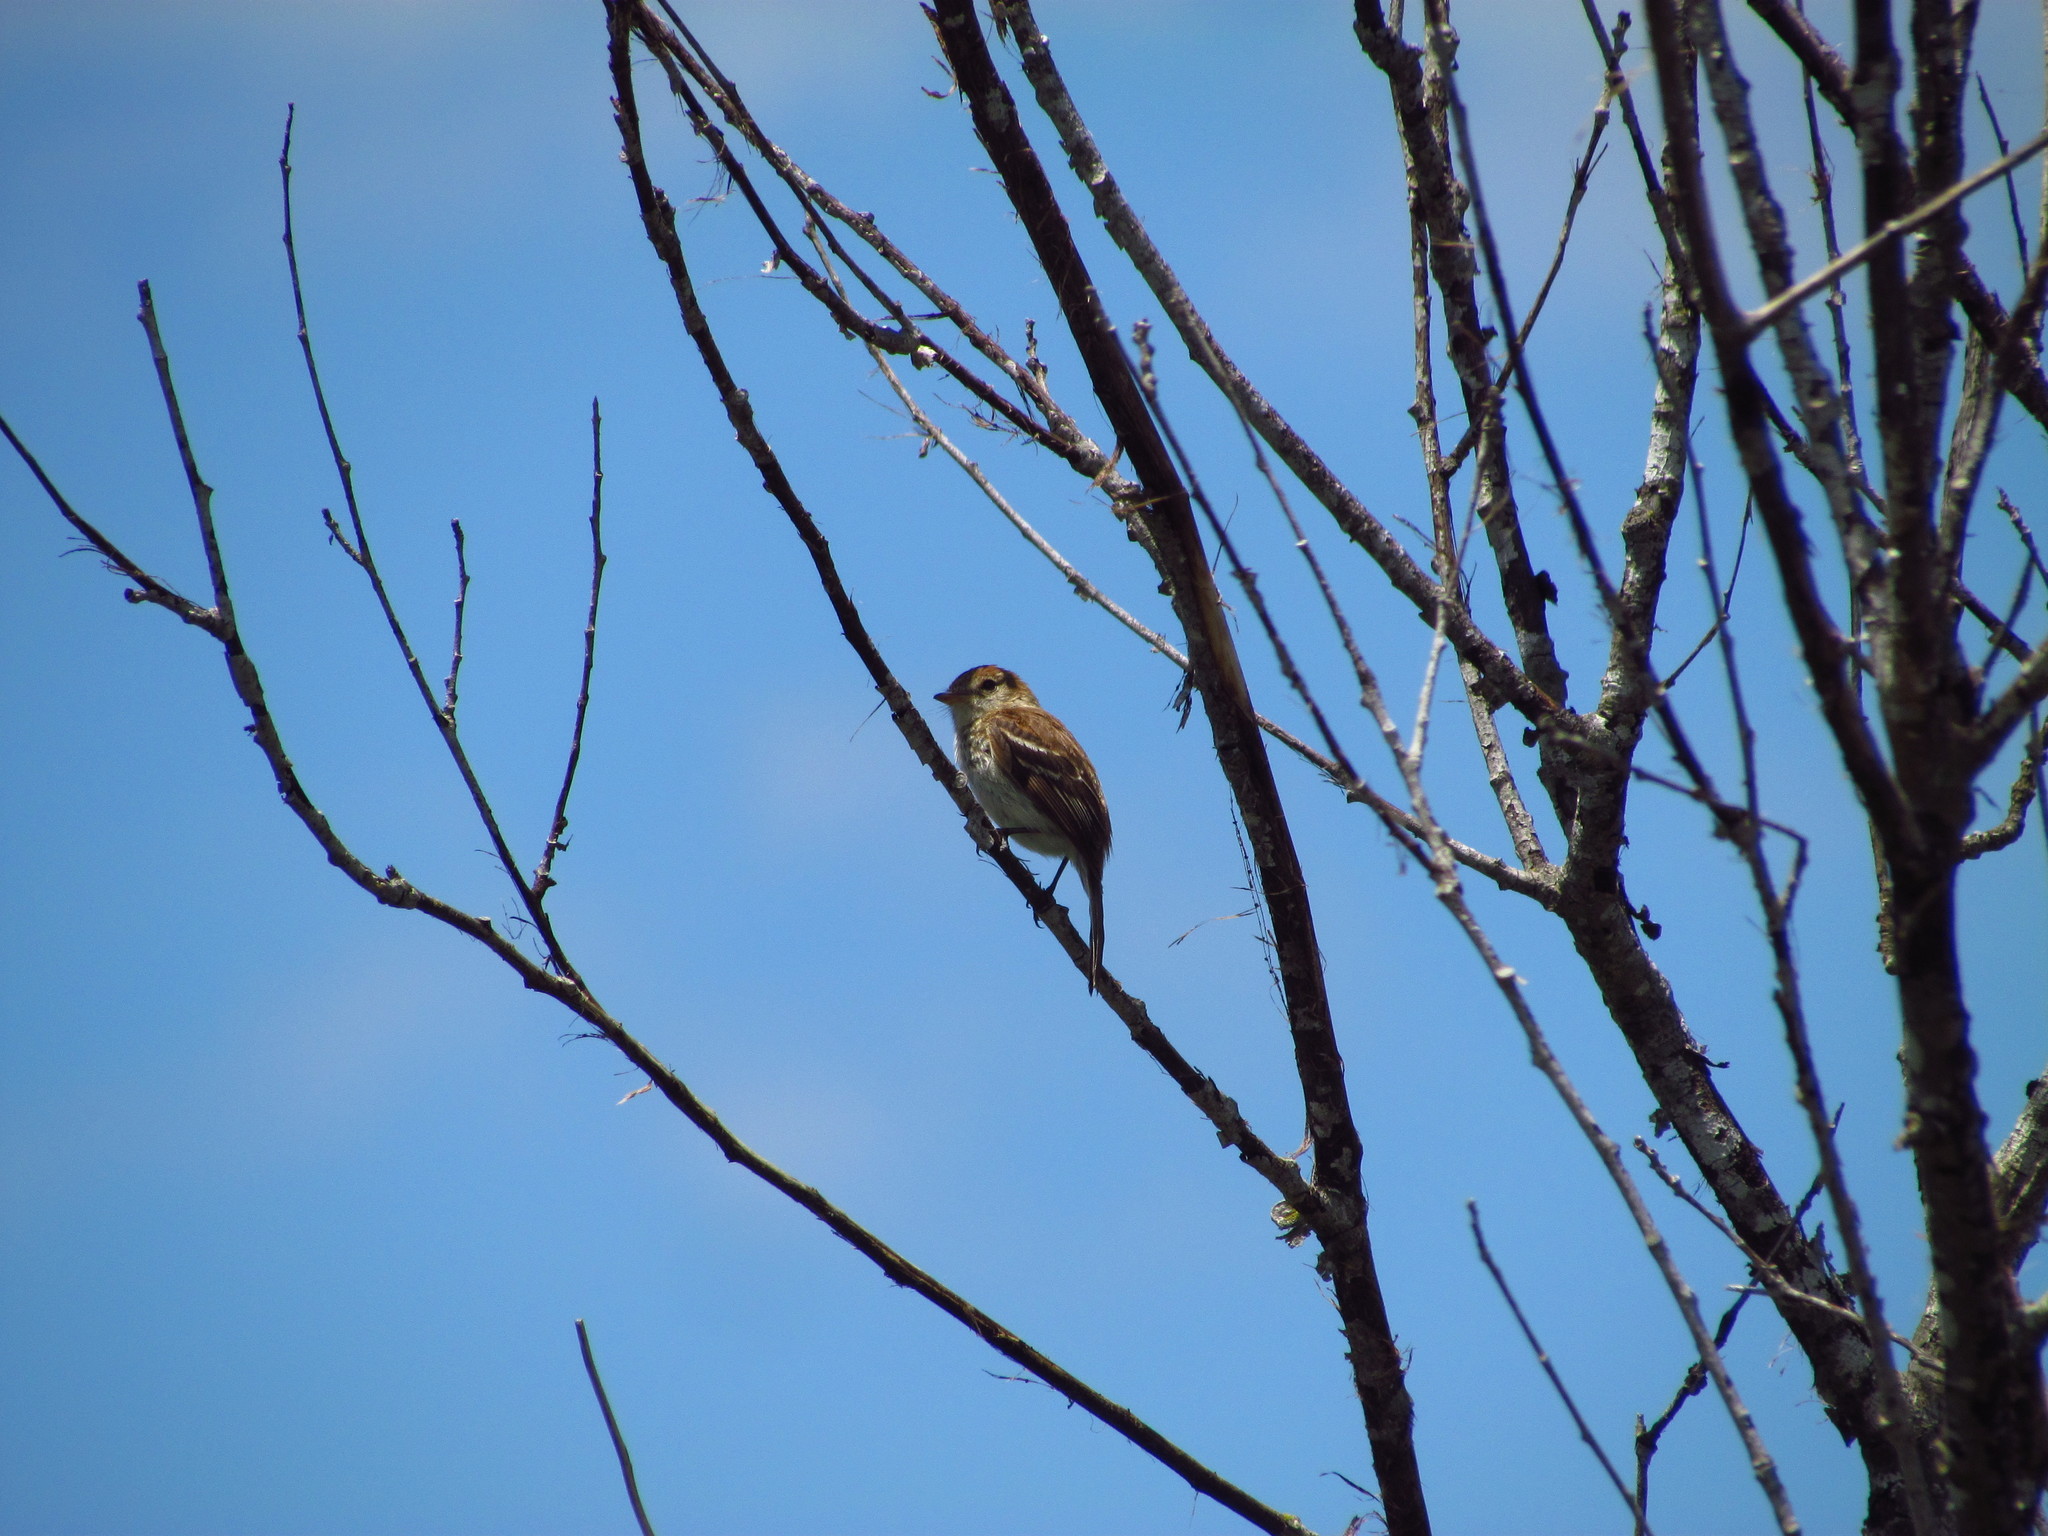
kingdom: Animalia
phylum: Chordata
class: Aves
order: Passeriformes
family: Tyrannidae
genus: Myiophobus
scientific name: Myiophobus fasciatus
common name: Bran-colored flycatcher
